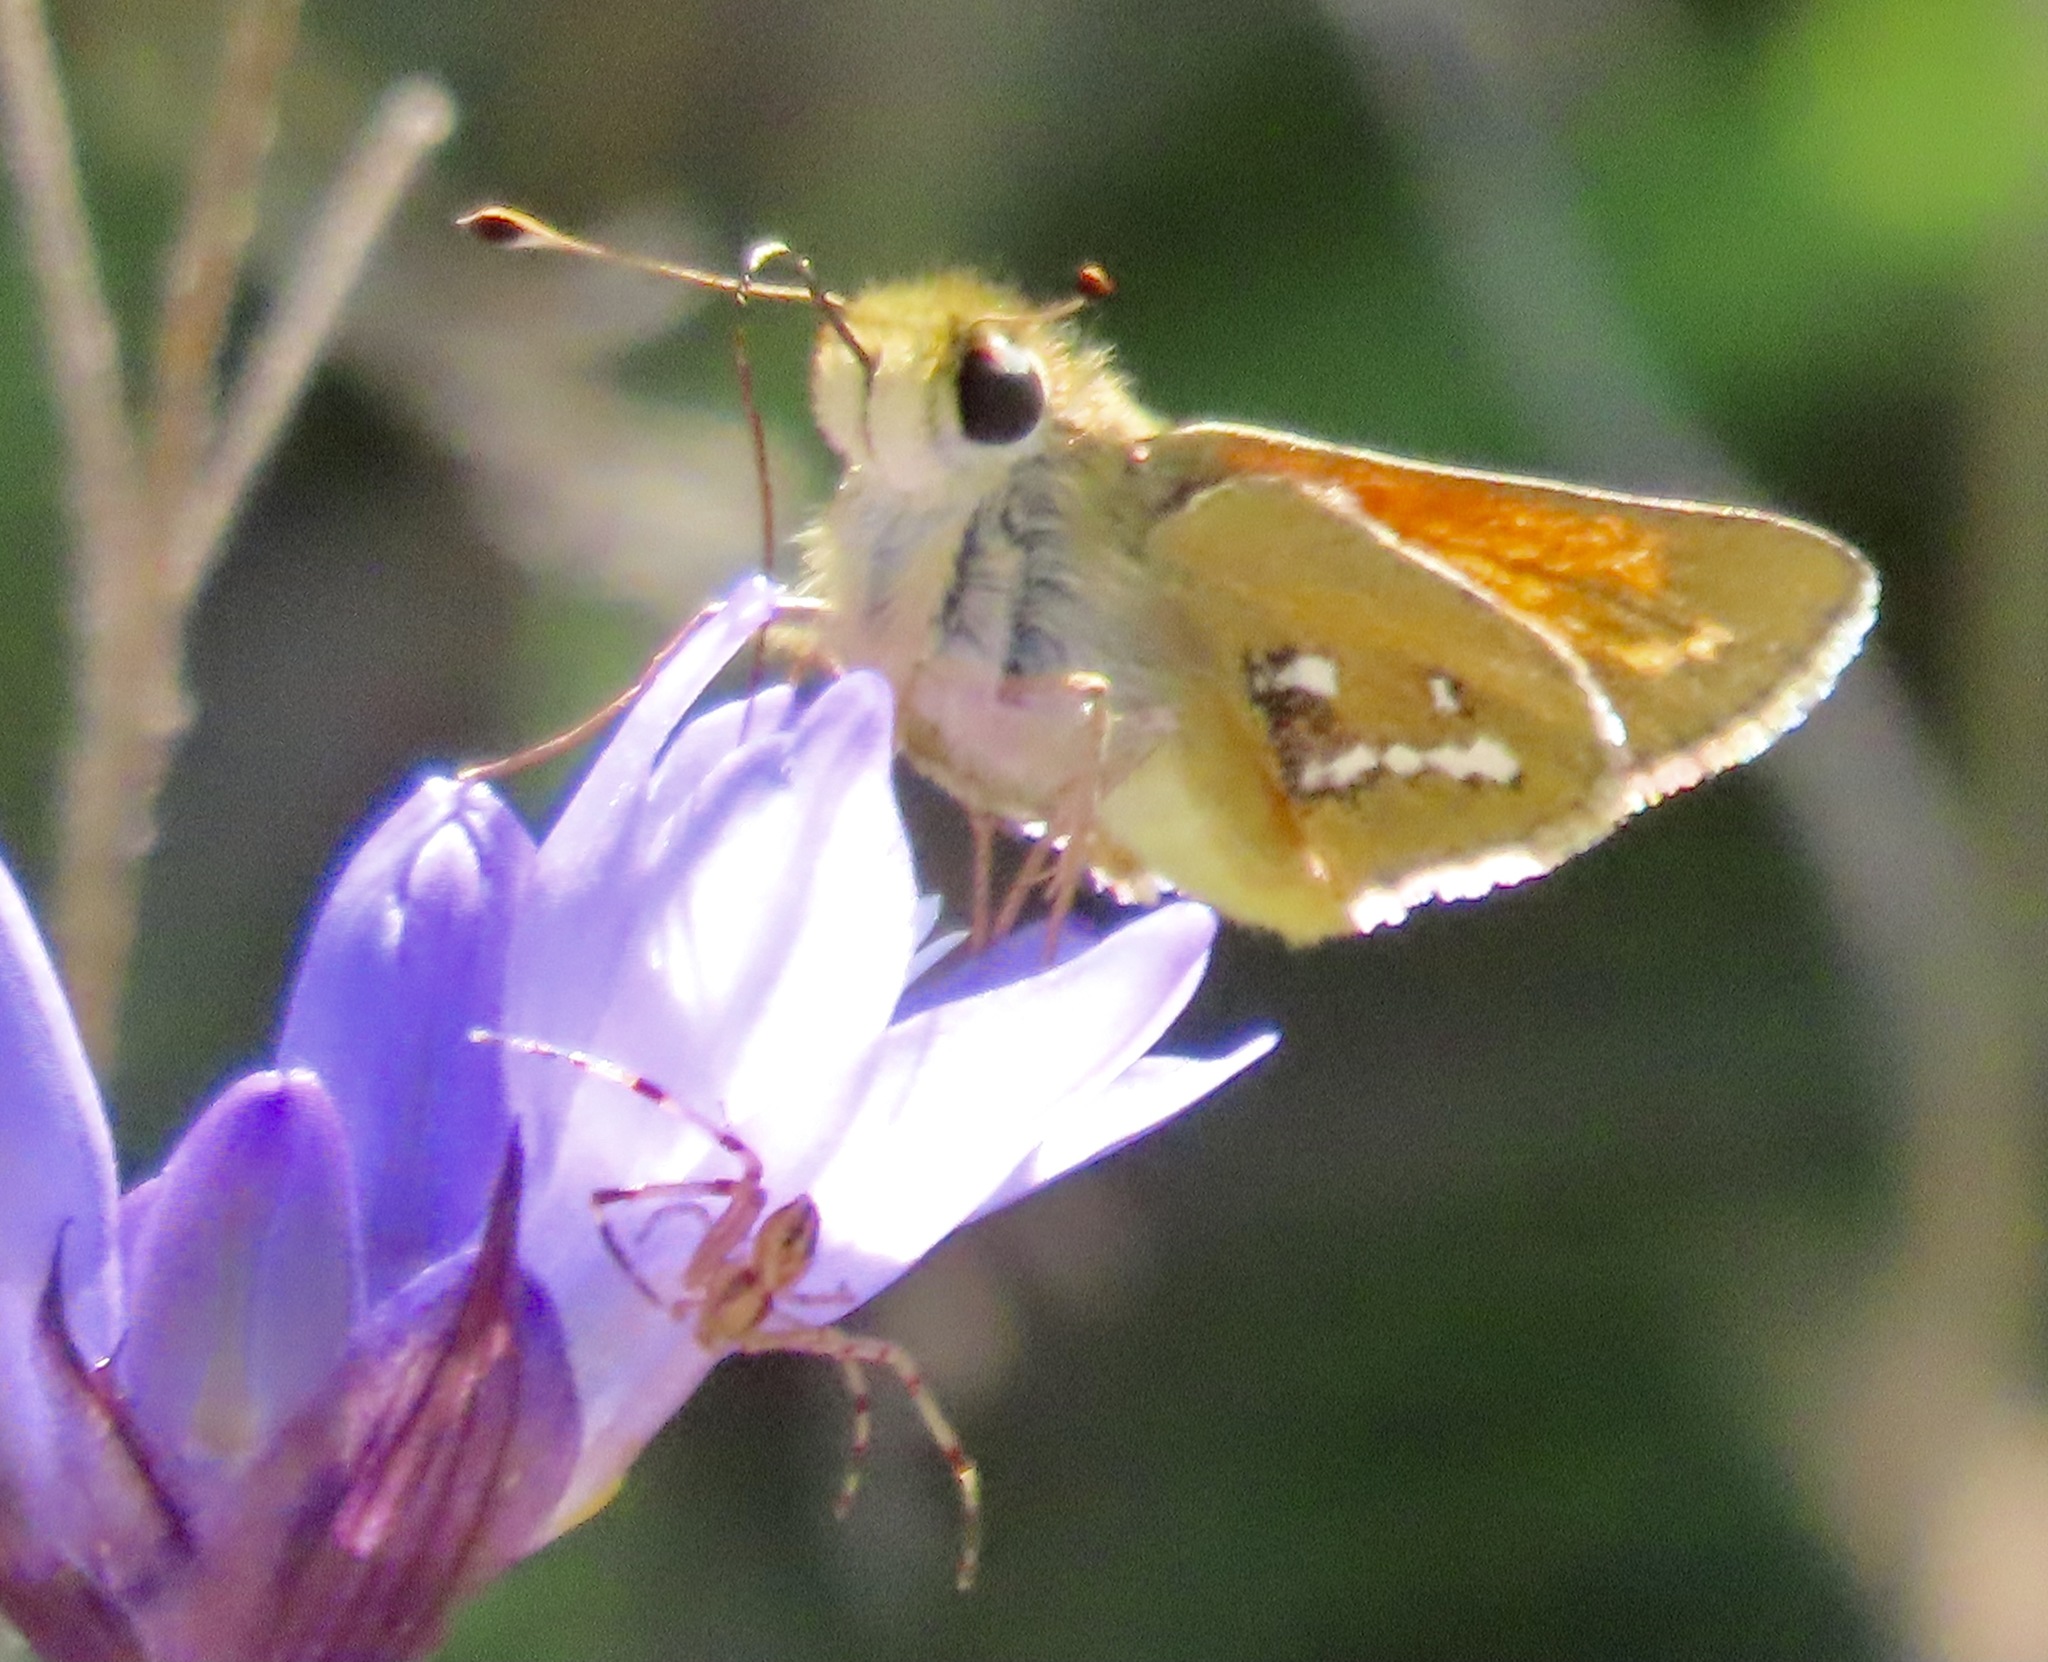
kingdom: Animalia
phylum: Arthropoda
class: Insecta
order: Lepidoptera
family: Hesperiidae
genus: Hesperia
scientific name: Hesperia columbia
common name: Columbian skipper
